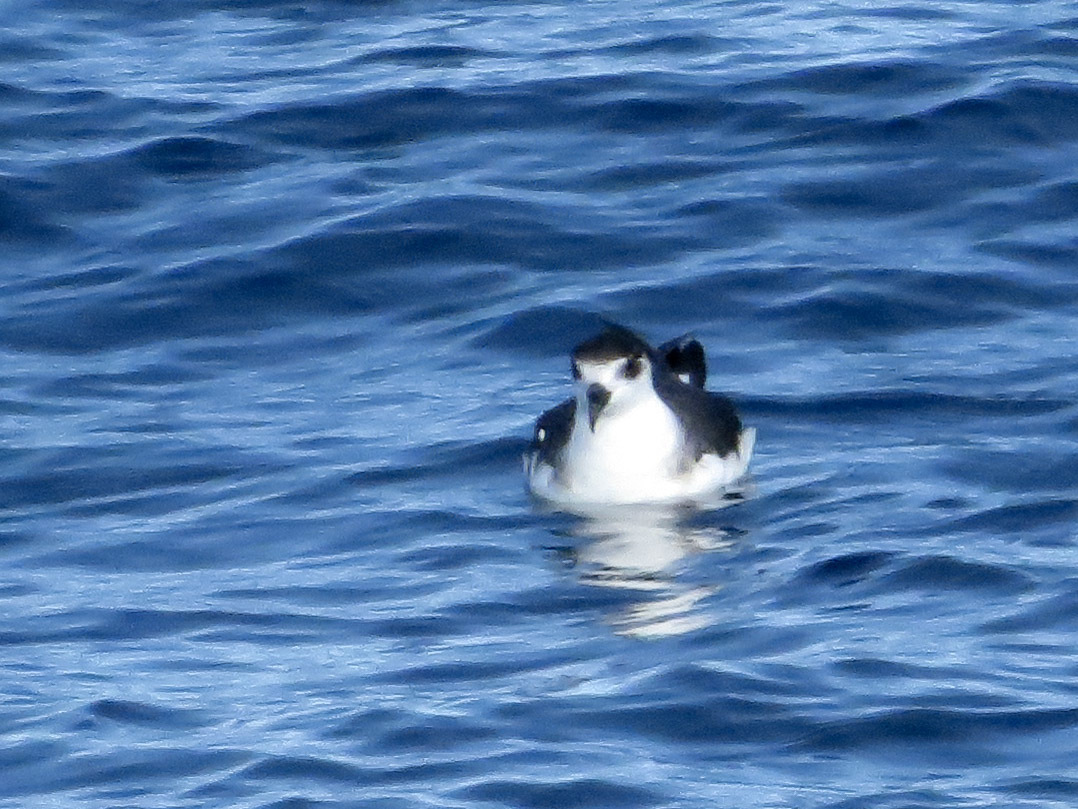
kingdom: Animalia
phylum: Chordata
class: Aves
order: Procellariiformes
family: Procellariidae
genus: Pterodroma
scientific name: Pterodroma hasitata
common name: Black-capped petrel
